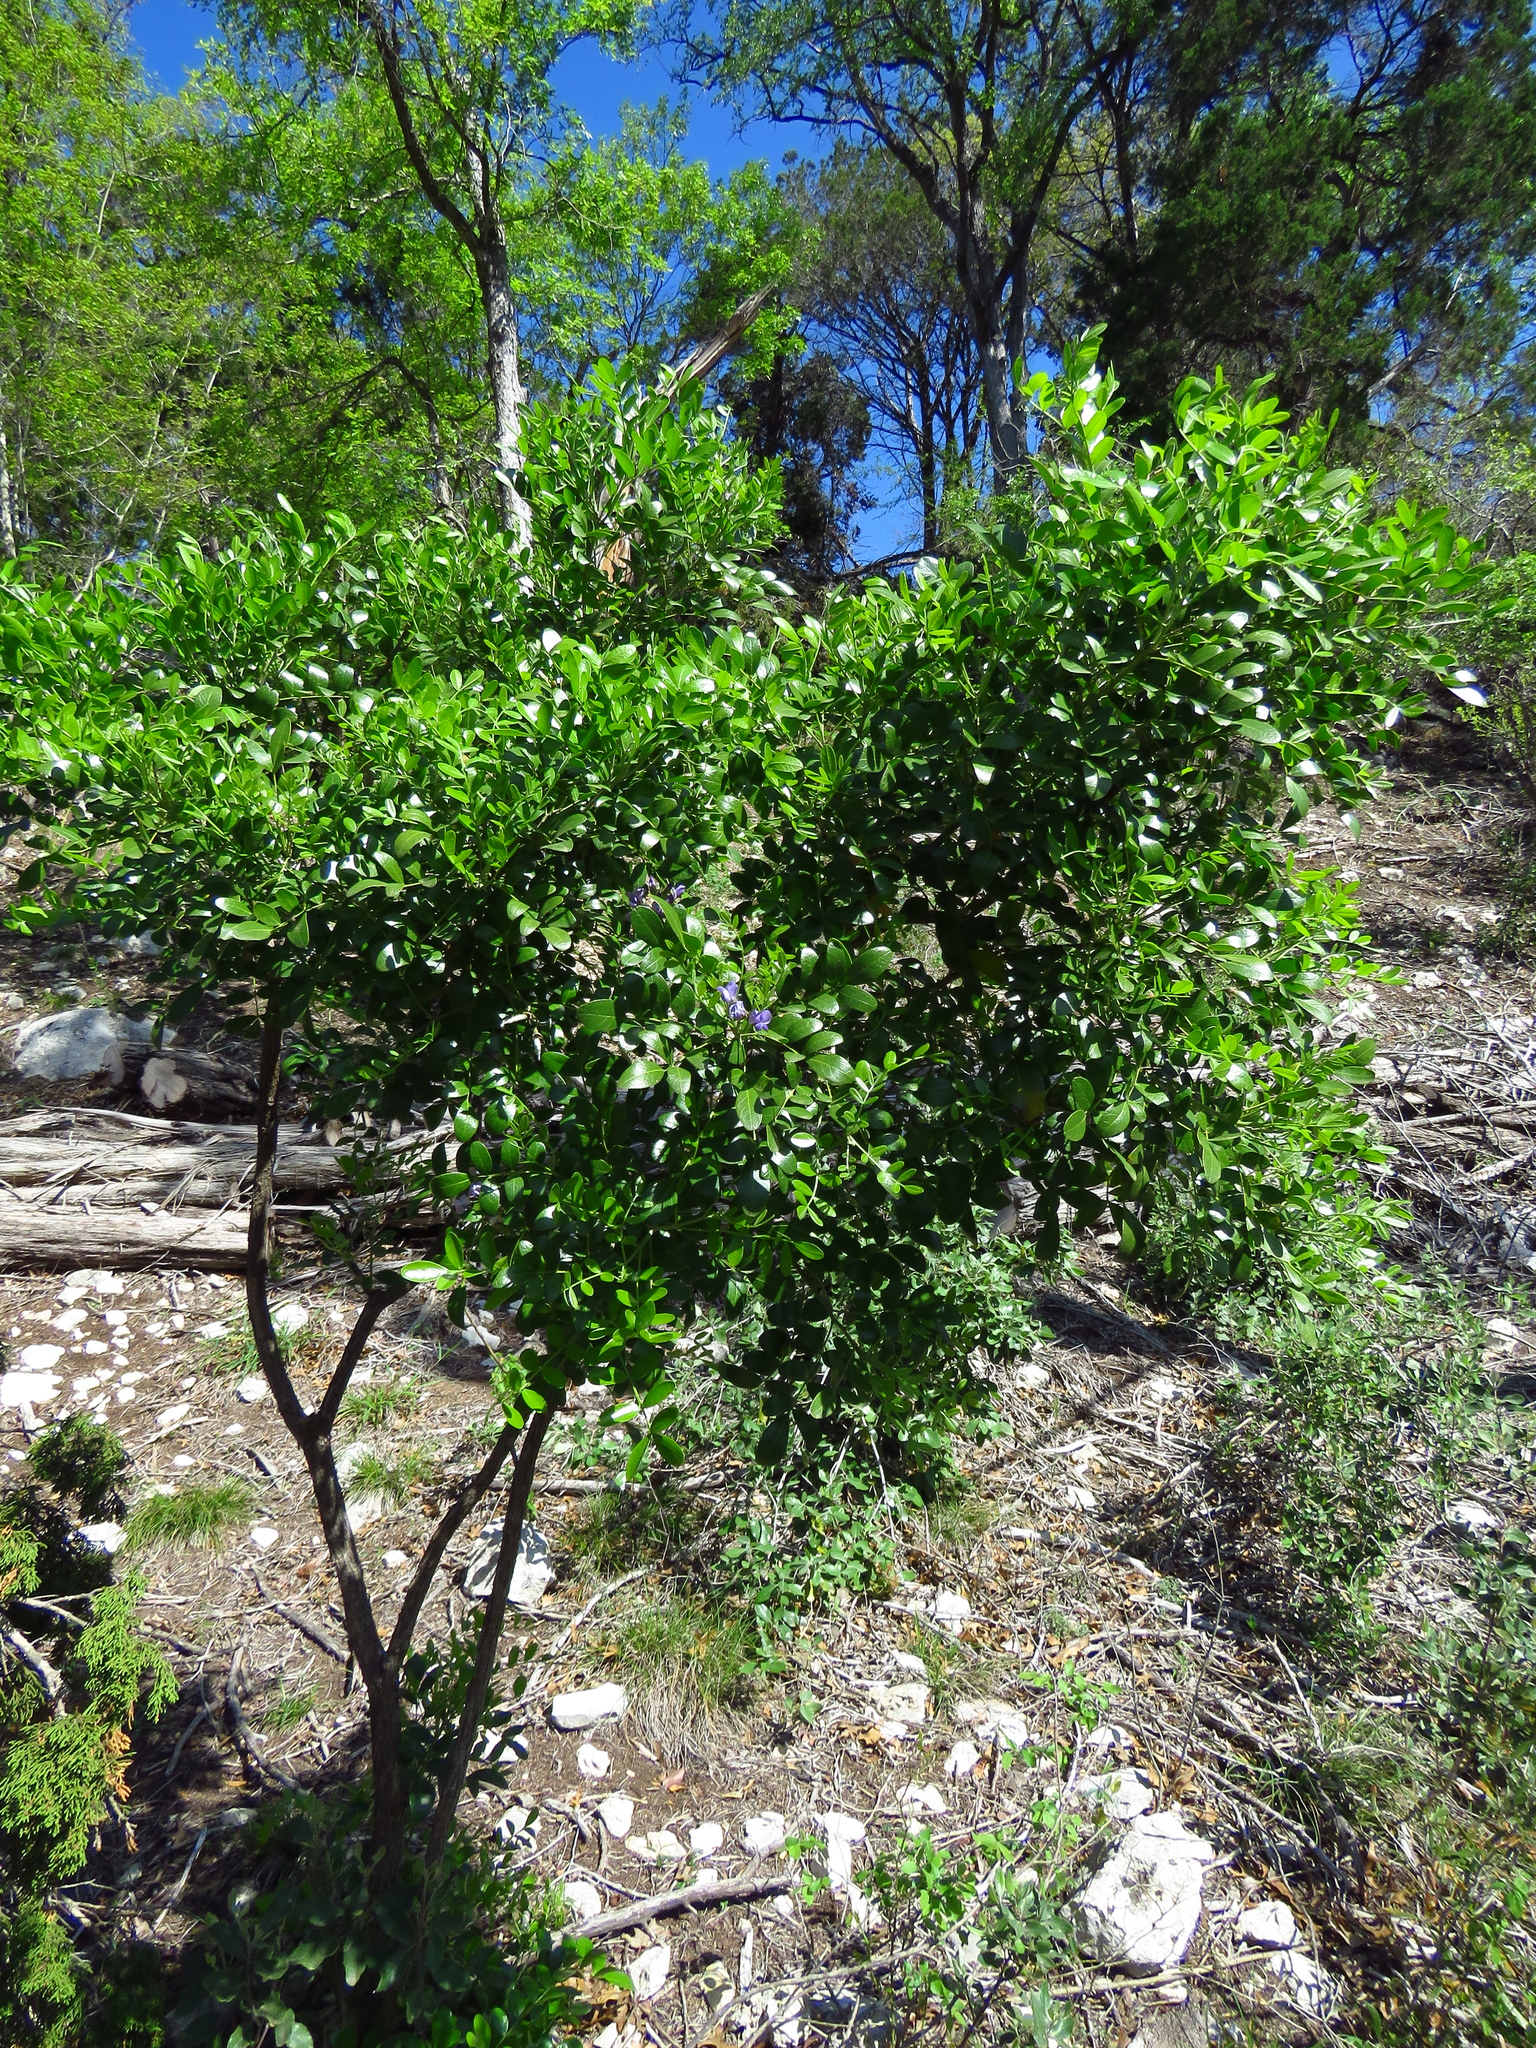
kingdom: Plantae
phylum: Tracheophyta
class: Magnoliopsida
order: Fabales
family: Fabaceae
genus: Dermatophyllum
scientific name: Dermatophyllum secundiflorum
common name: Texas-mountain-laurel
